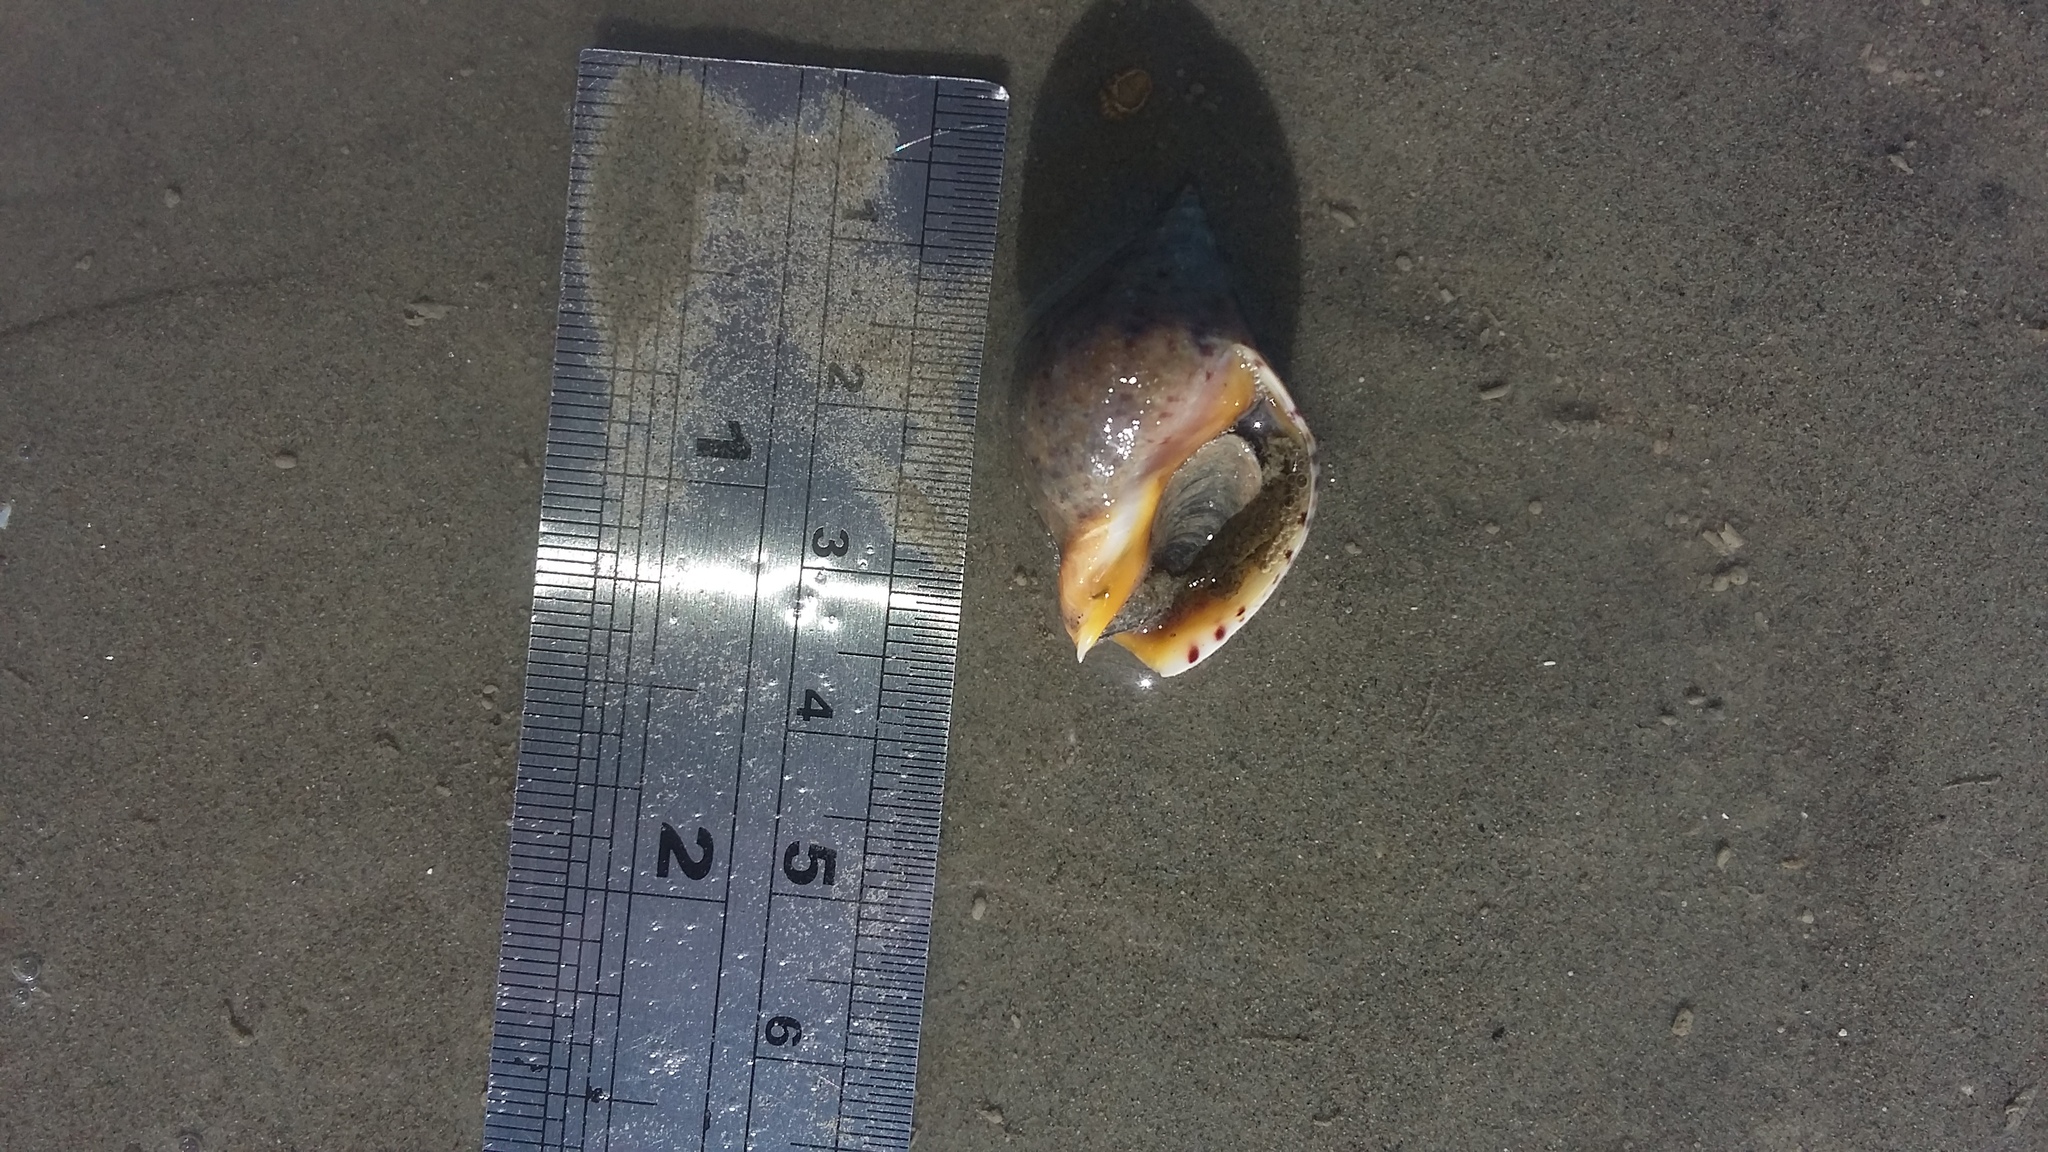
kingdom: Animalia
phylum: Mollusca
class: Gastropoda
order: Neogastropoda
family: Cominellidae
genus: Cominella
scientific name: Cominella adspersa
